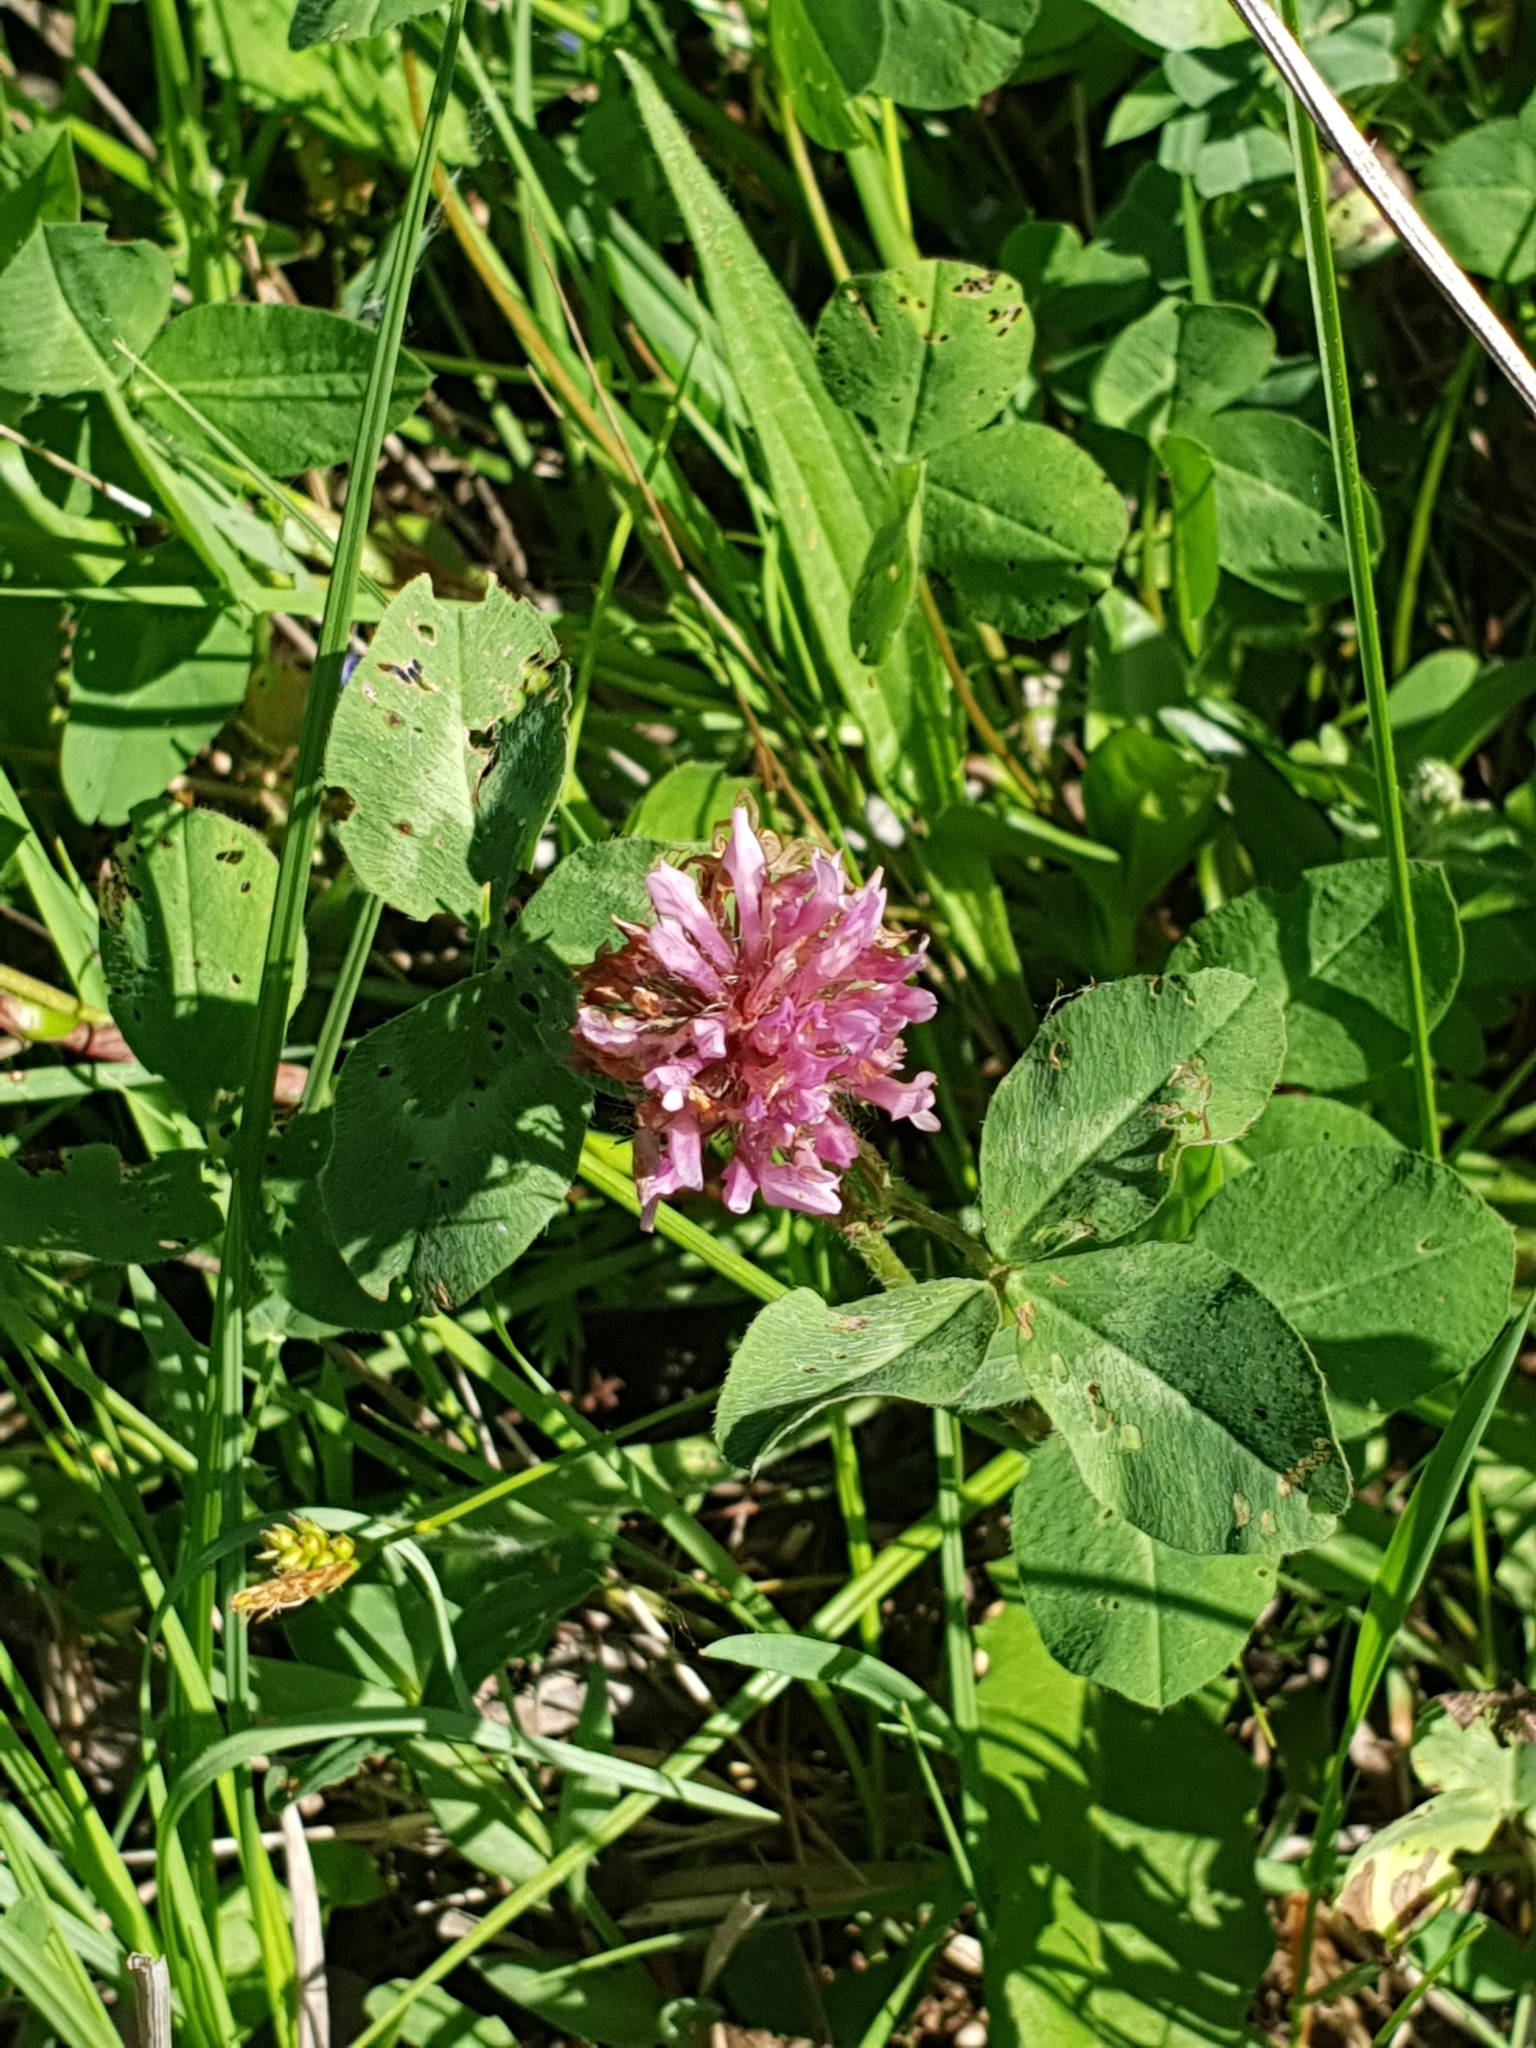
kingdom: Plantae
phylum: Tracheophyta
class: Magnoliopsida
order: Fabales
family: Fabaceae
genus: Trifolium
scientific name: Trifolium pratense
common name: Red clover
